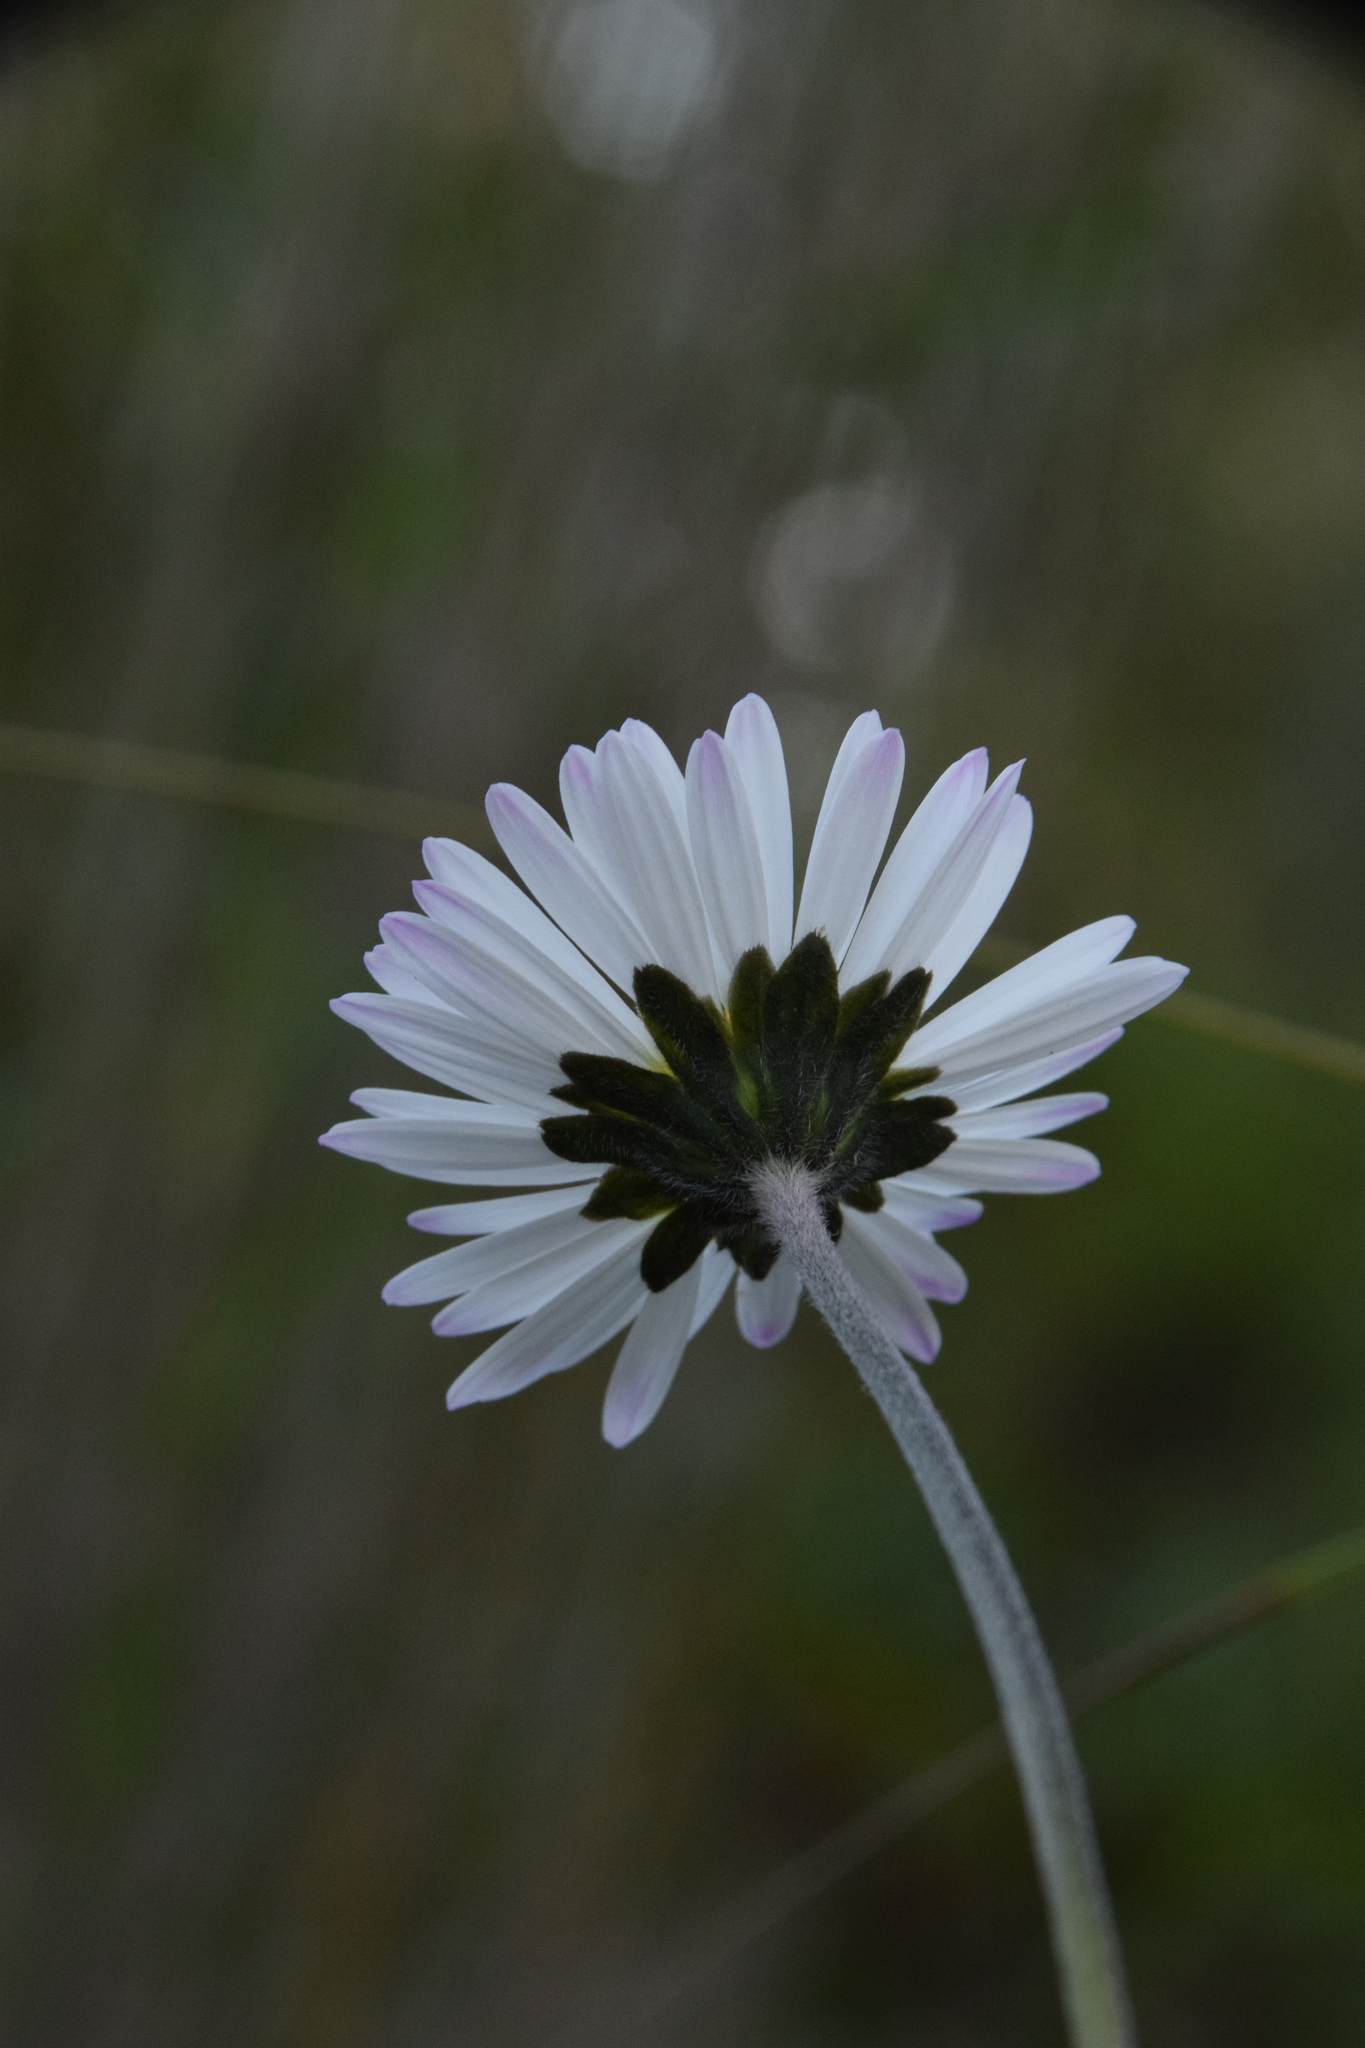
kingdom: Plantae
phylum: Tracheophyta
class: Magnoliopsida
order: Asterales
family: Asteraceae
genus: Bellis
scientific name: Bellis sylvestris
